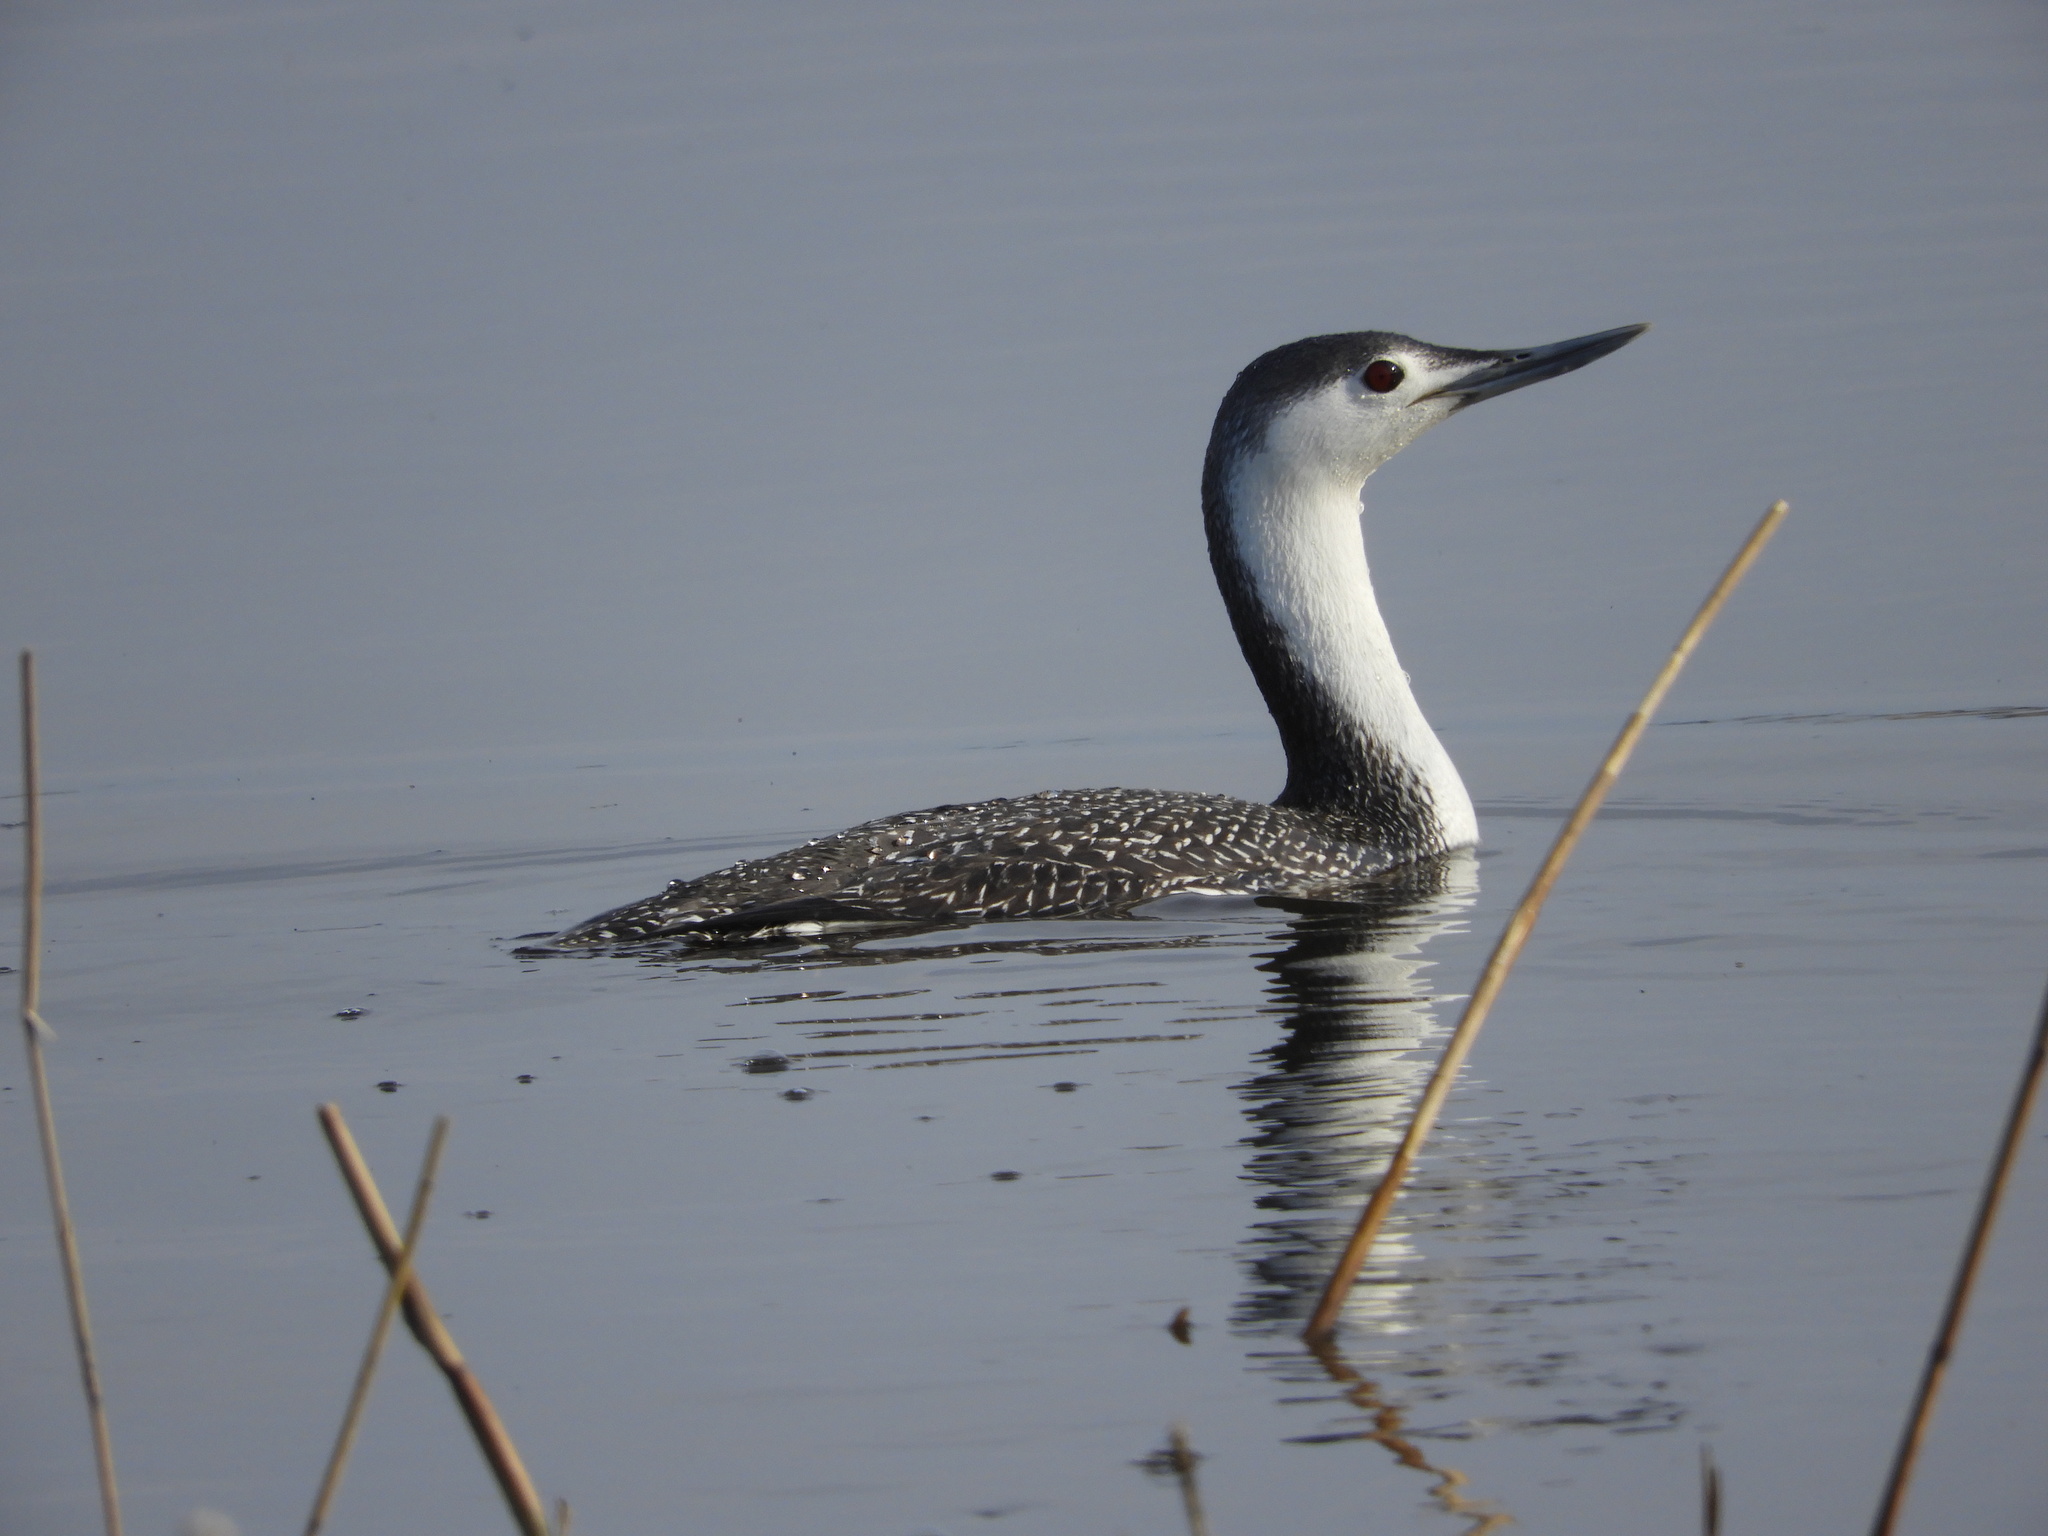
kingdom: Animalia
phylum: Chordata
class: Aves
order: Gaviiformes
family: Gaviidae
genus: Gavia
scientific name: Gavia stellata
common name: Red-throated loon
